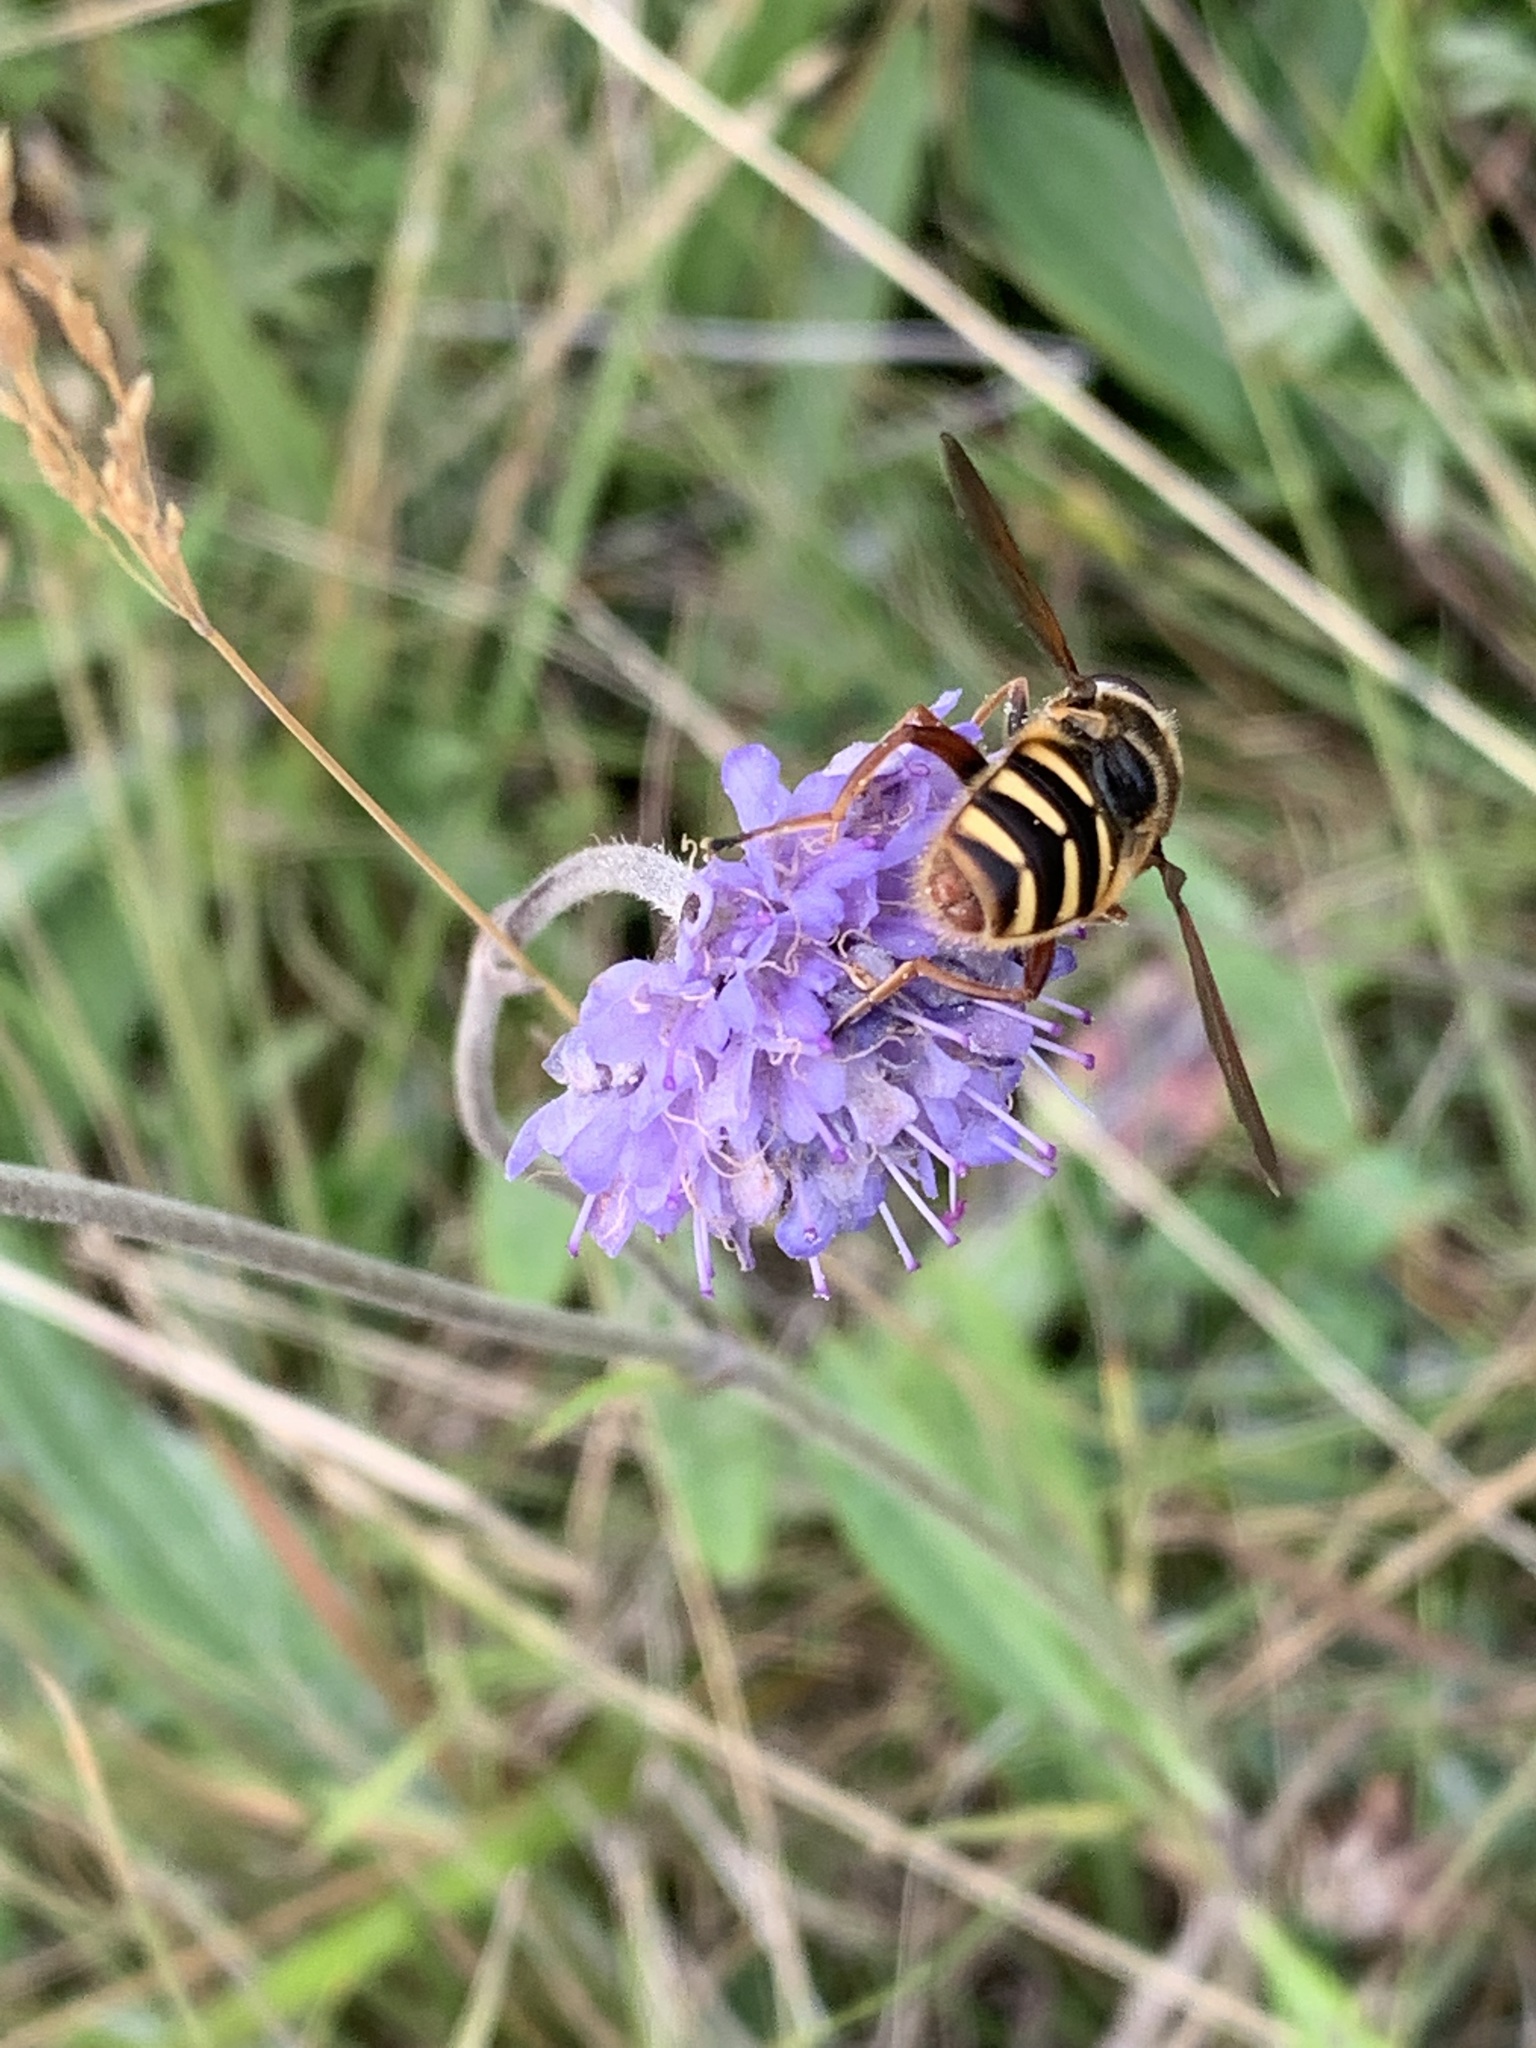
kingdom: Animalia
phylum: Arthropoda
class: Insecta
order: Diptera
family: Syrphidae
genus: Sericomyia
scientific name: Sericomyia silentis
